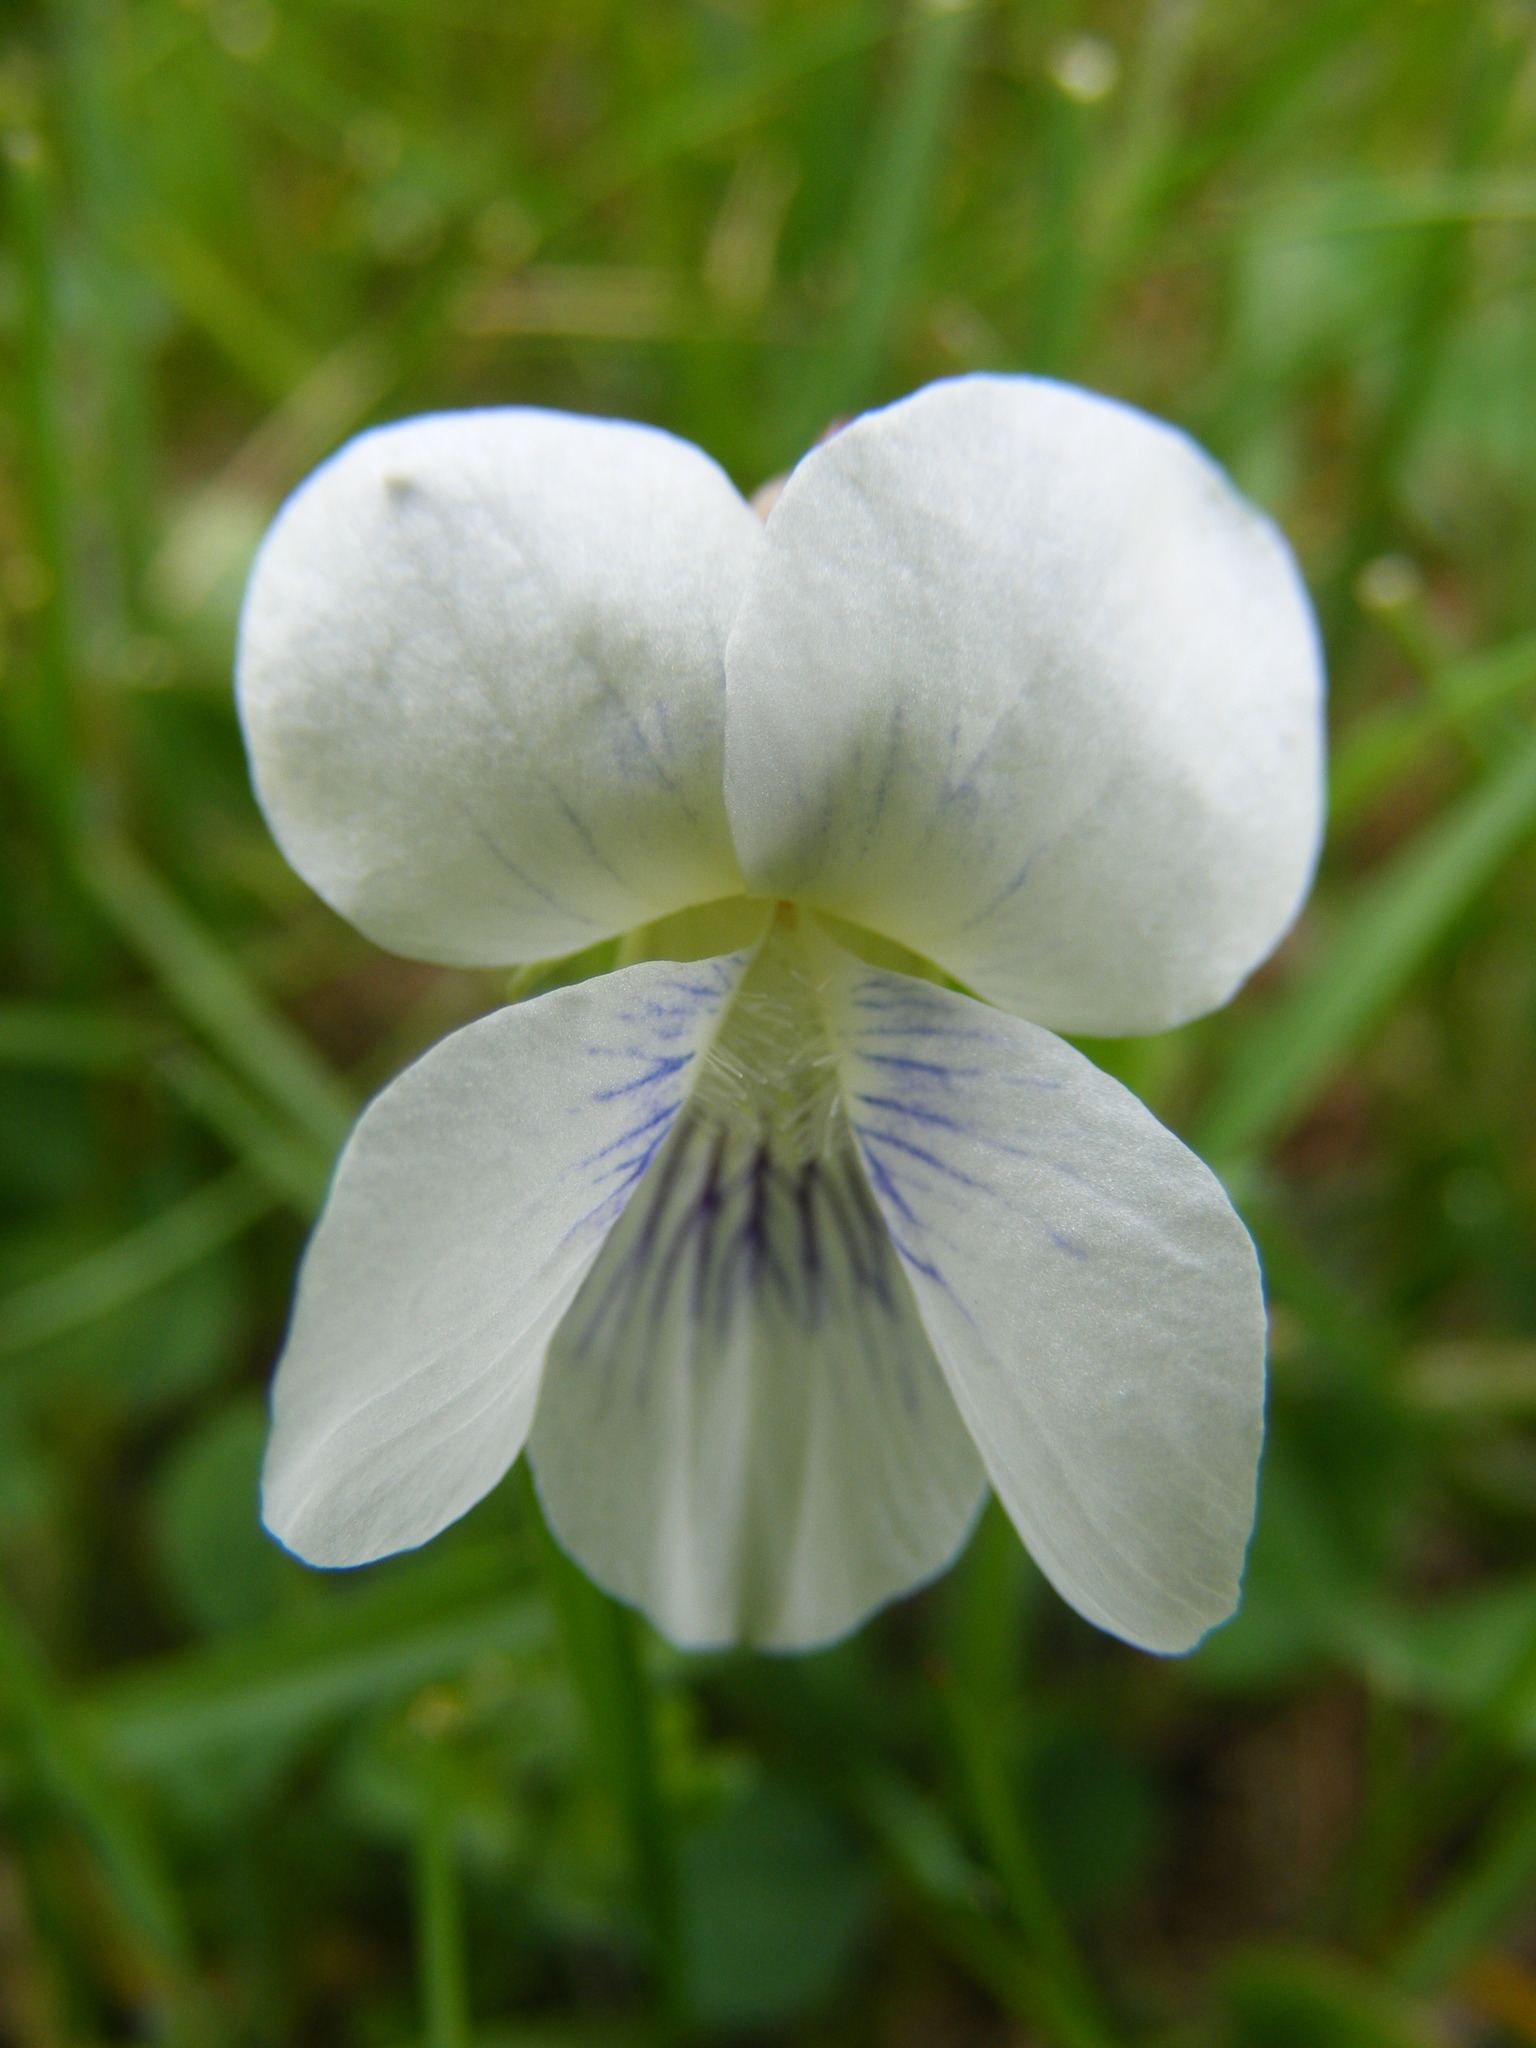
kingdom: Plantae
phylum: Tracheophyta
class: Magnoliopsida
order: Malpighiales
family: Violaceae
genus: Viola
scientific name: Viola sororia
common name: Dooryard violet
